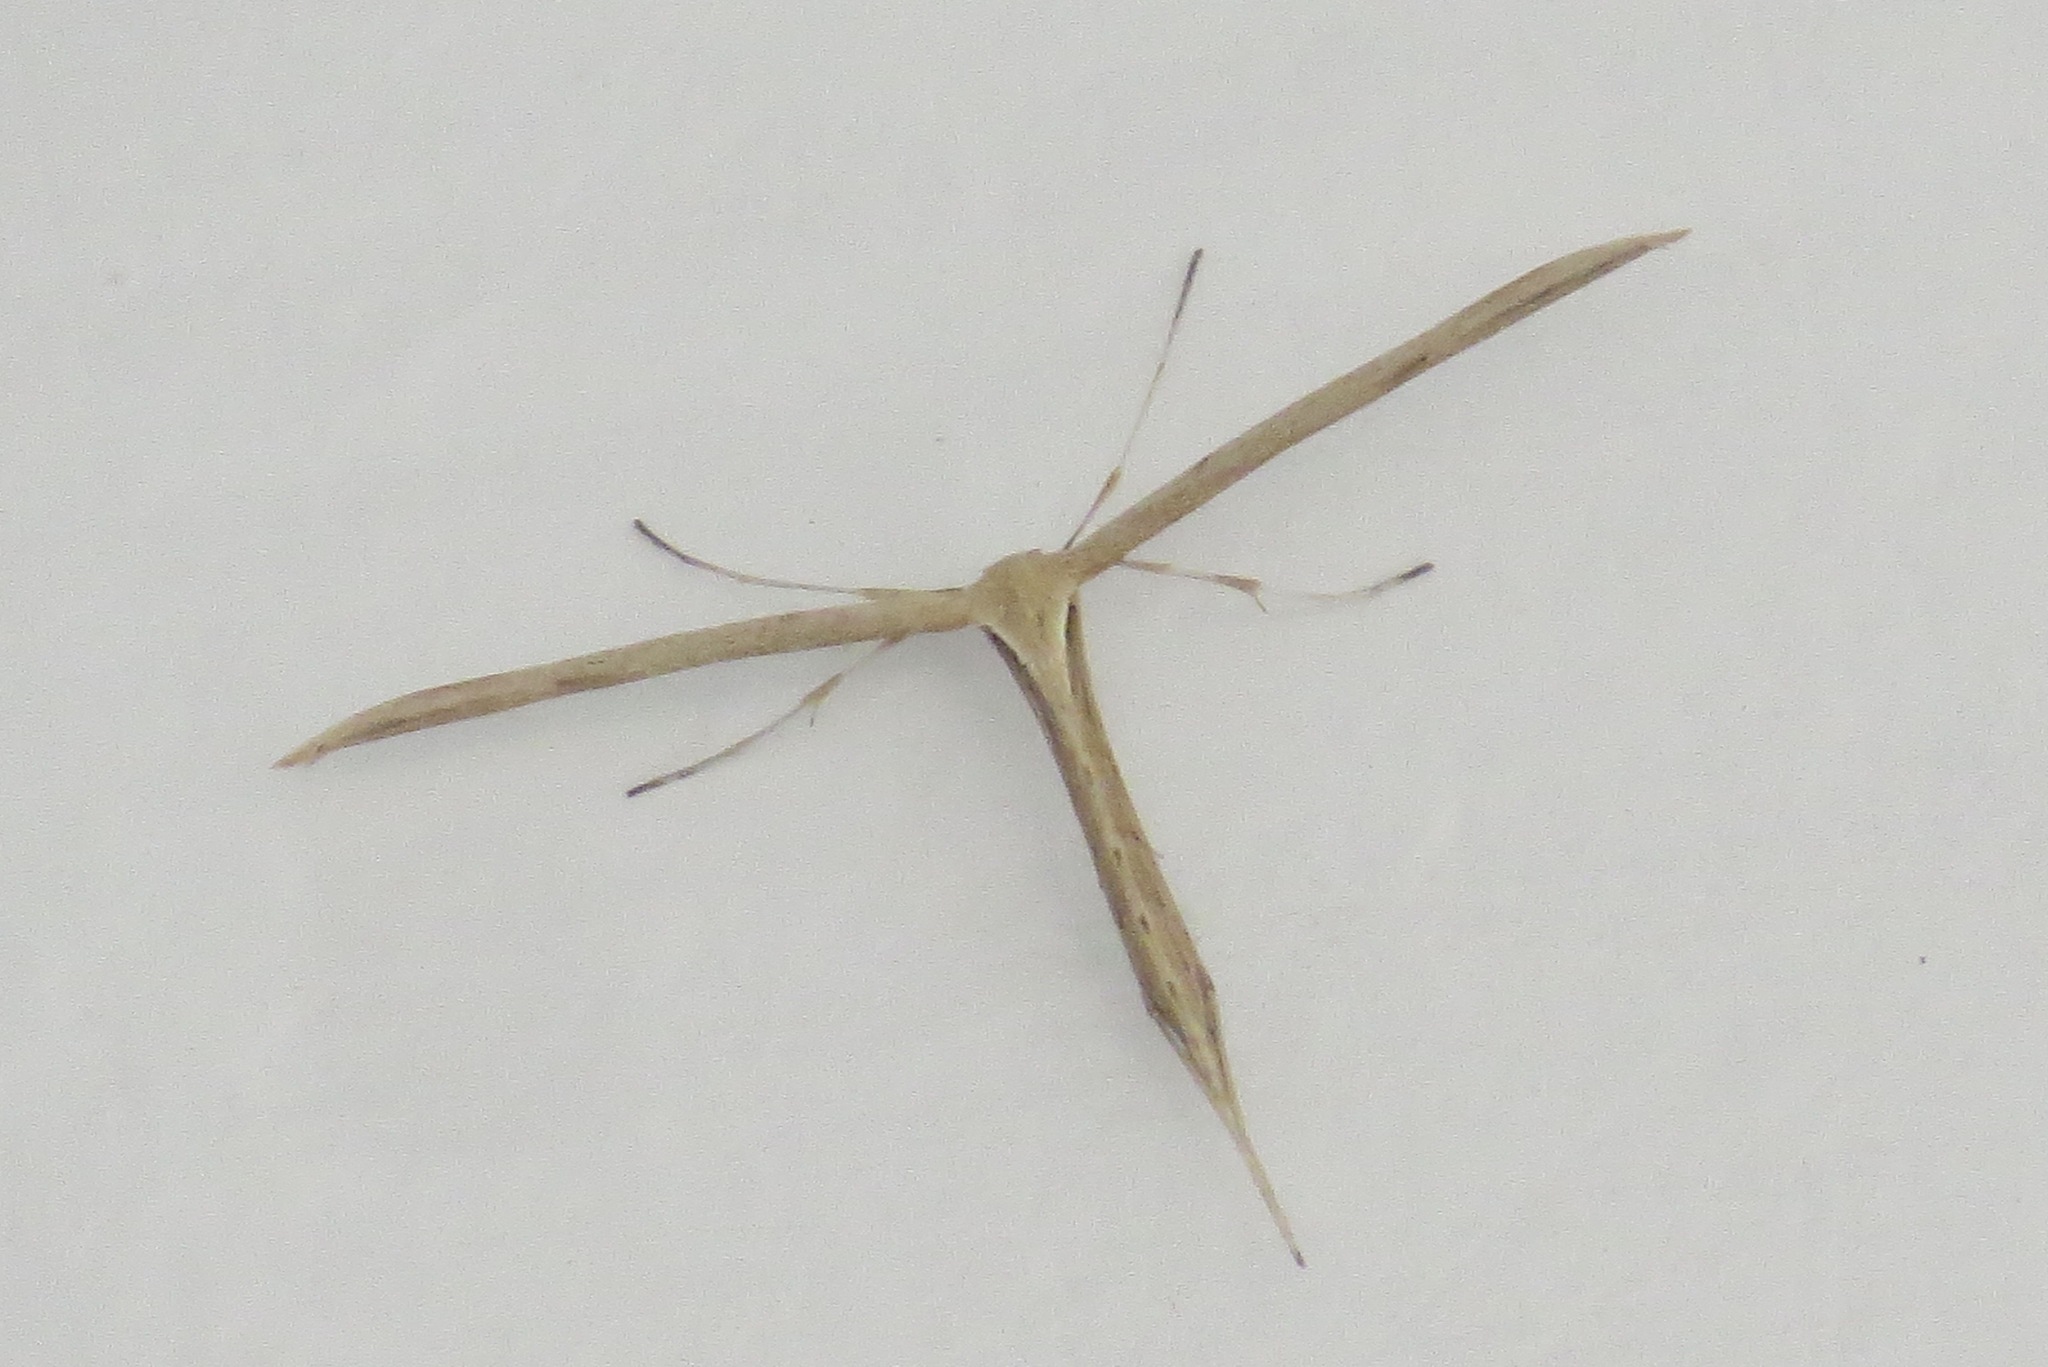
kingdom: Animalia
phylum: Arthropoda
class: Insecta
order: Lepidoptera
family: Pterophoridae
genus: Emmelina
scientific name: Emmelina monodactyla
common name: Common plume
